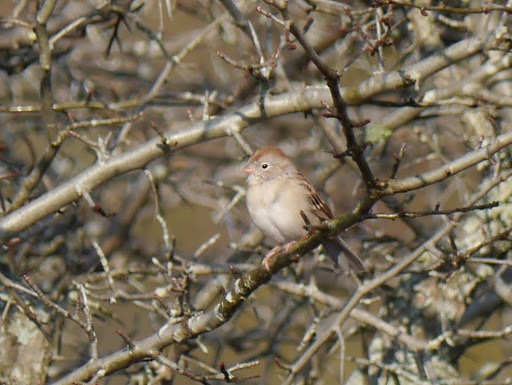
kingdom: Animalia
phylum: Chordata
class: Aves
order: Passeriformes
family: Passerellidae
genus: Spizella
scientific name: Spizella pusilla
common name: Field sparrow
